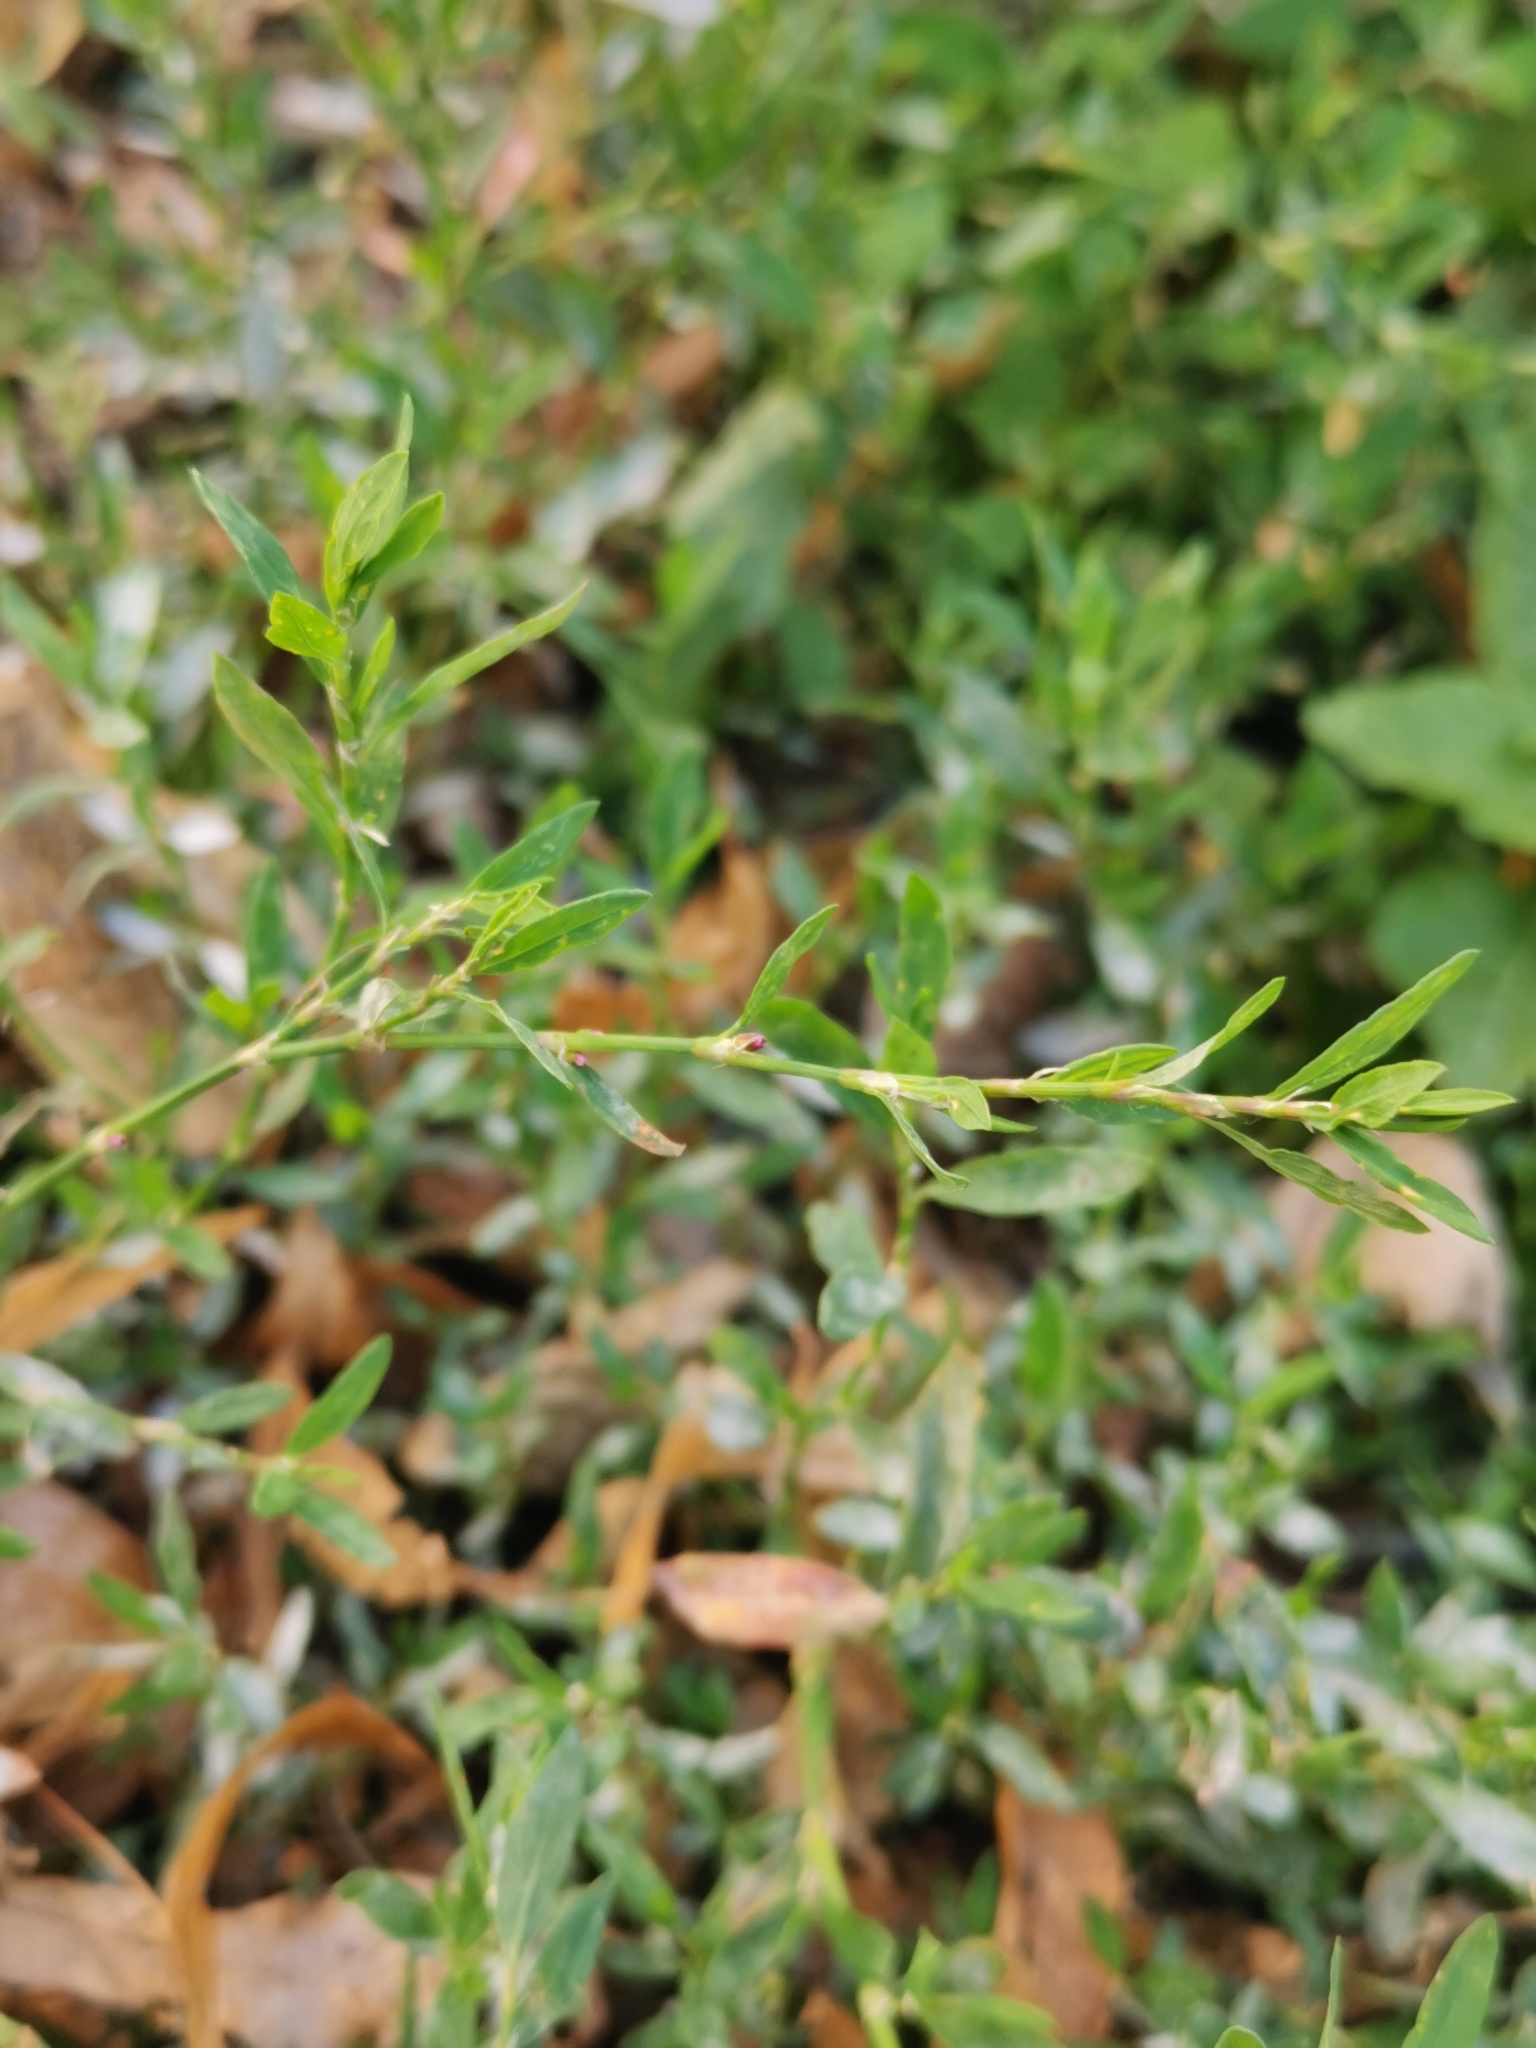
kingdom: Plantae
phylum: Tracheophyta
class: Magnoliopsida
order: Caryophyllales
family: Polygonaceae
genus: Polygonum
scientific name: Polygonum aviculare
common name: Prostrate knotweed
